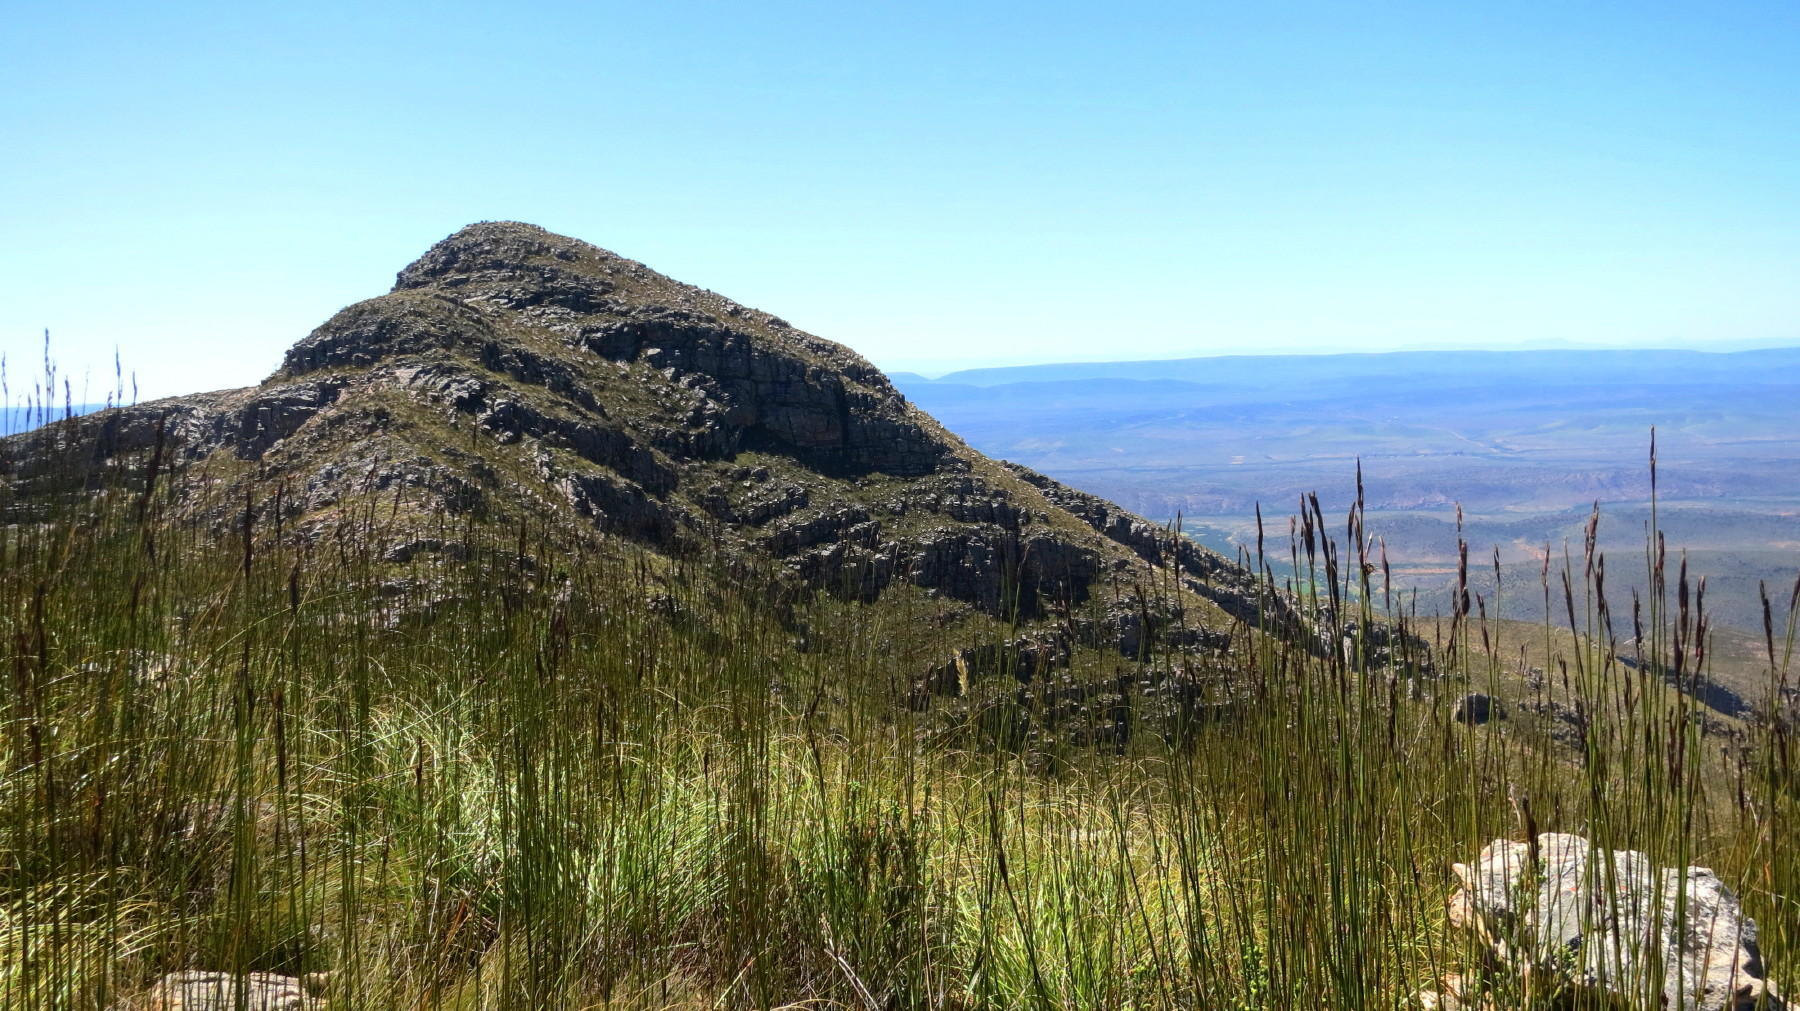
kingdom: Plantae
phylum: Tracheophyta
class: Liliopsida
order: Poales
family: Restionaceae
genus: Cannomois
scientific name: Cannomois scirpoides
